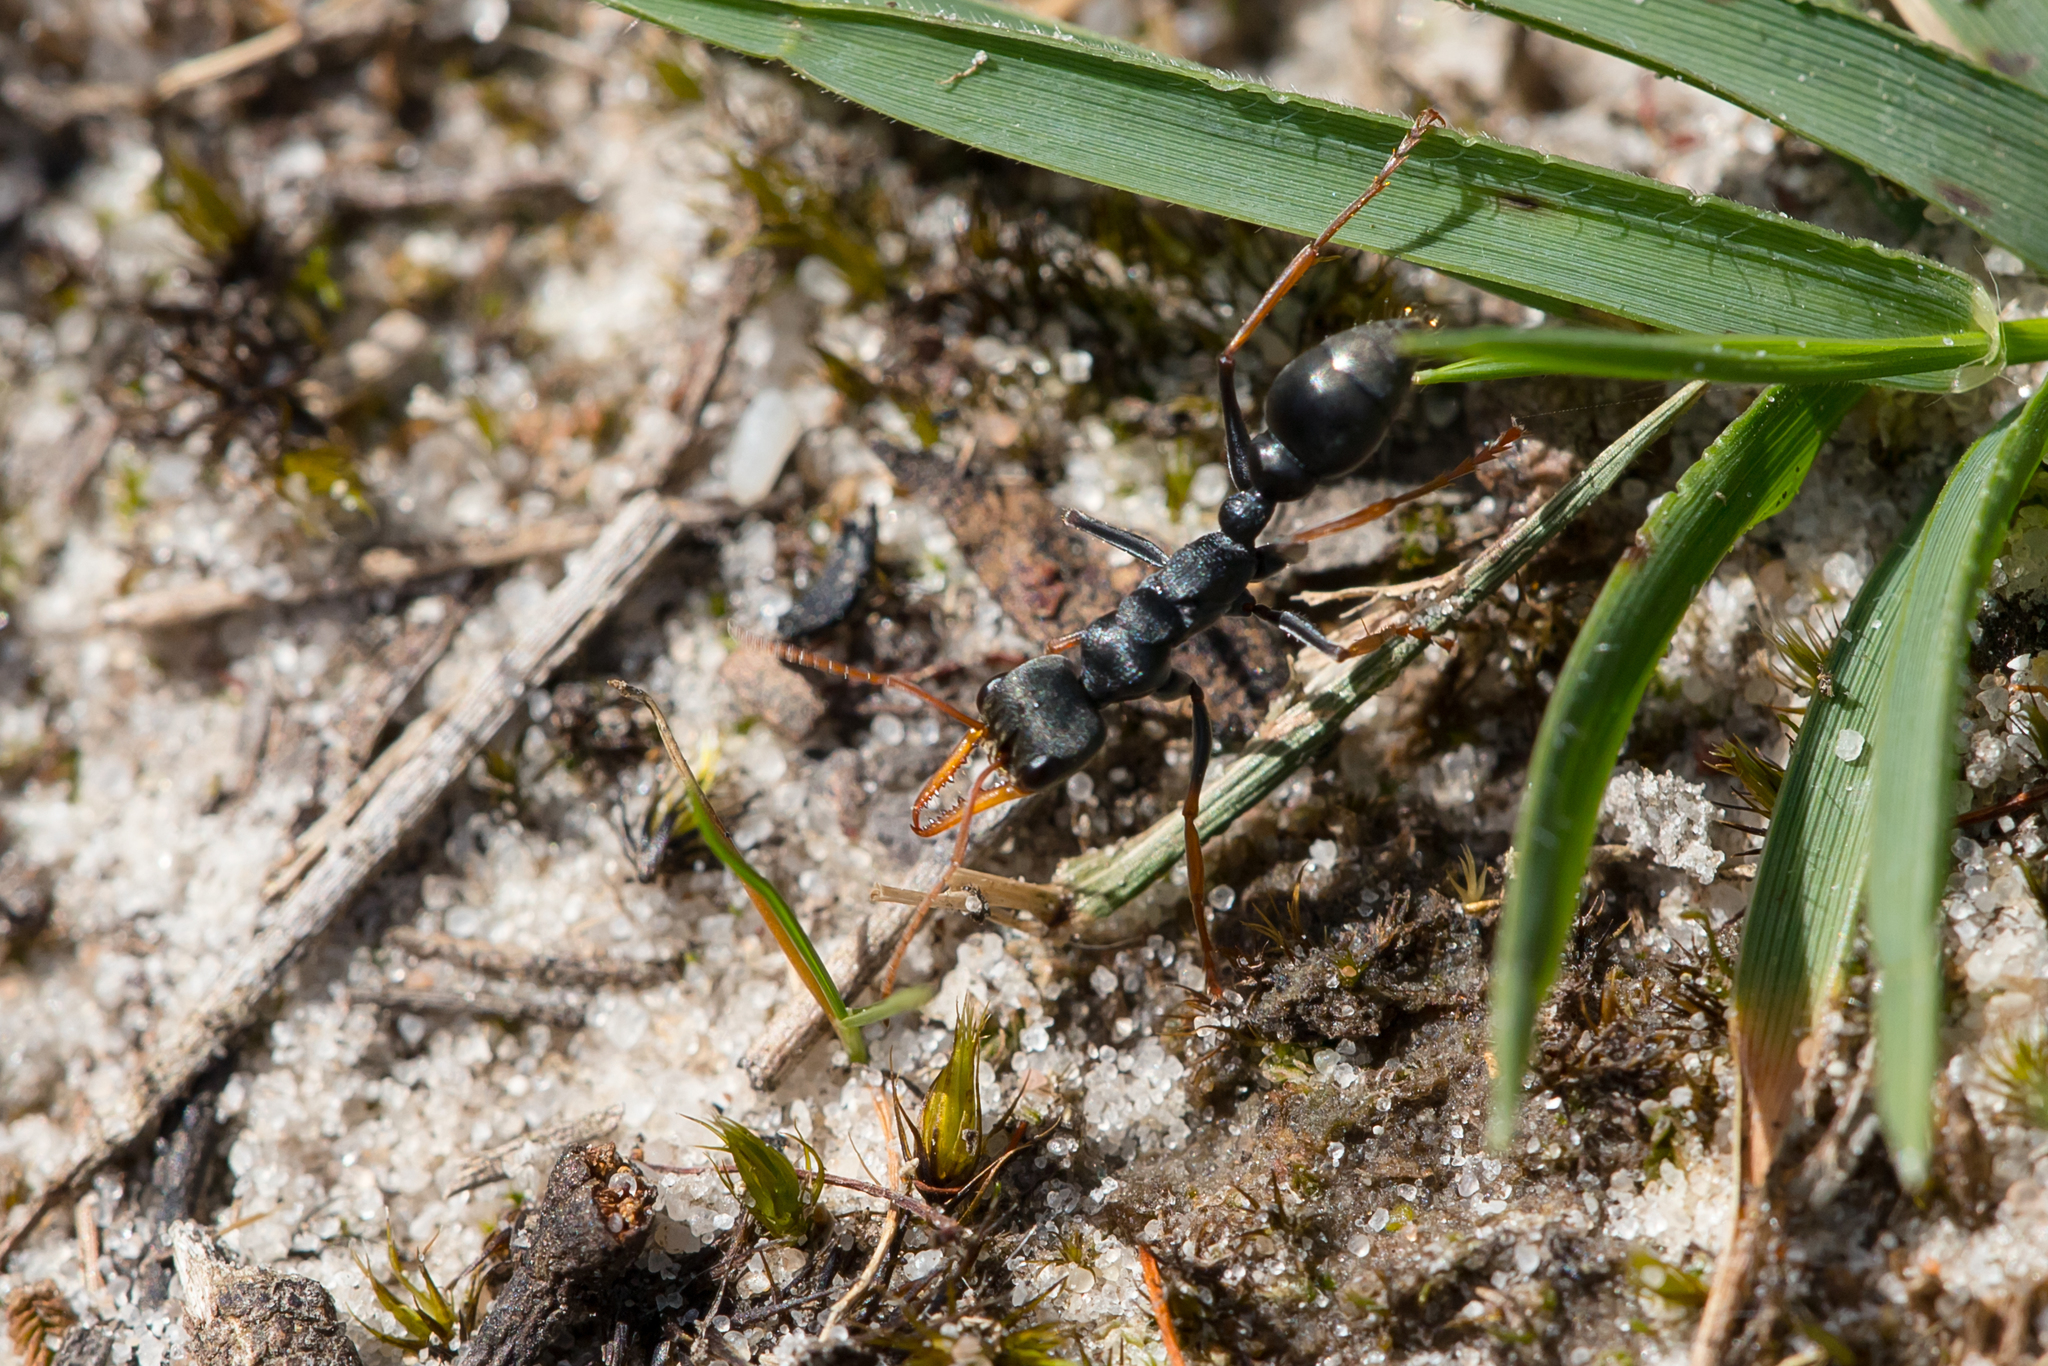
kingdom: Animalia
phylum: Arthropoda
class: Insecta
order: Hymenoptera
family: Formicidae
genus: Myrmecia
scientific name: Myrmecia pilosula
